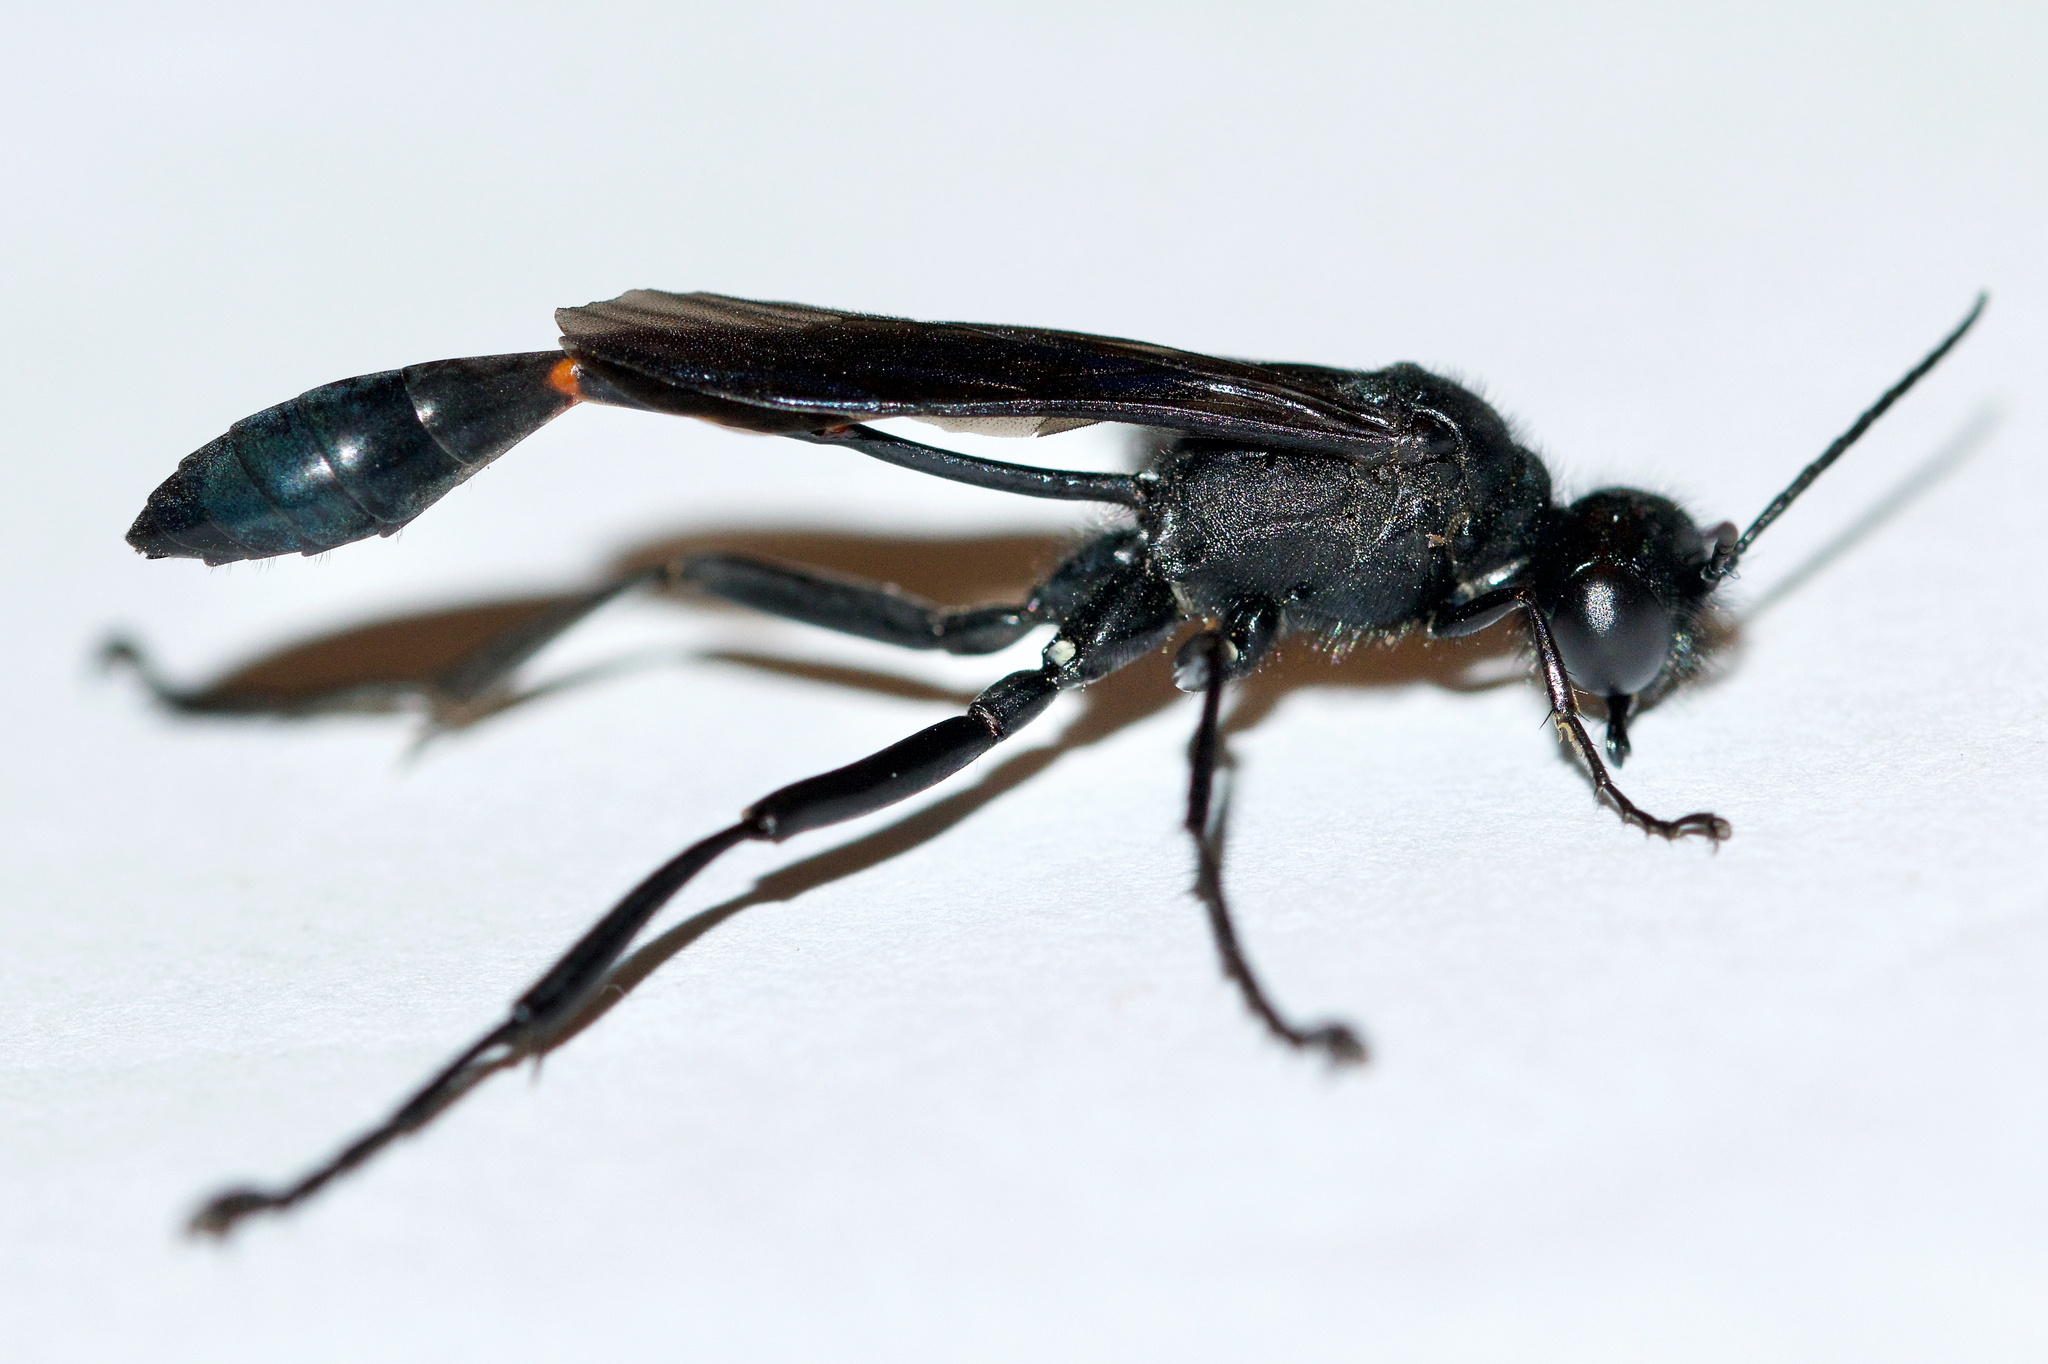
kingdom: Animalia
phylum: Arthropoda
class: Insecta
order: Hymenoptera
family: Sphecidae
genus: Ammophila
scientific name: Ammophila nigricans
